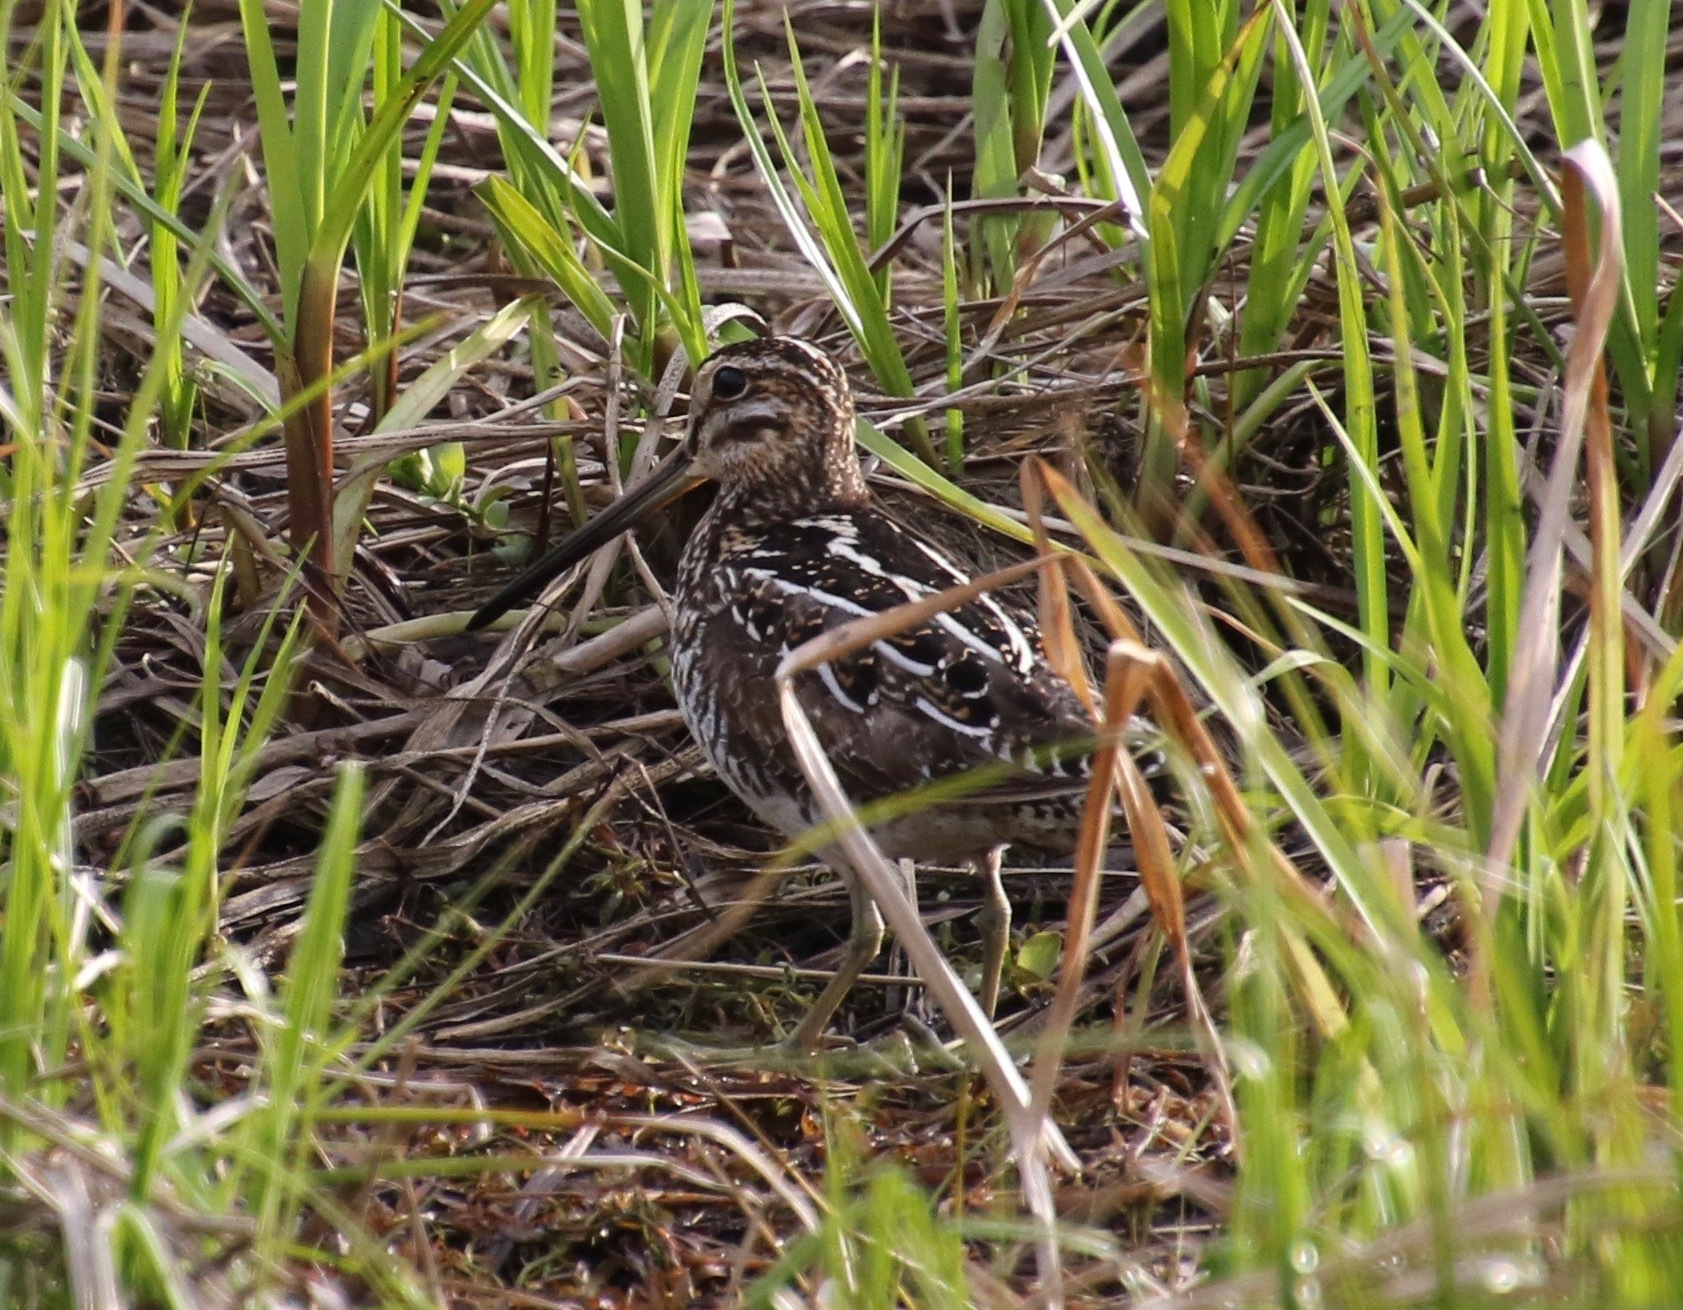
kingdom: Animalia
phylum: Chordata
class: Aves
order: Charadriiformes
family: Scolopacidae
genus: Gallinago
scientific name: Gallinago delicata
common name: Wilson's snipe
